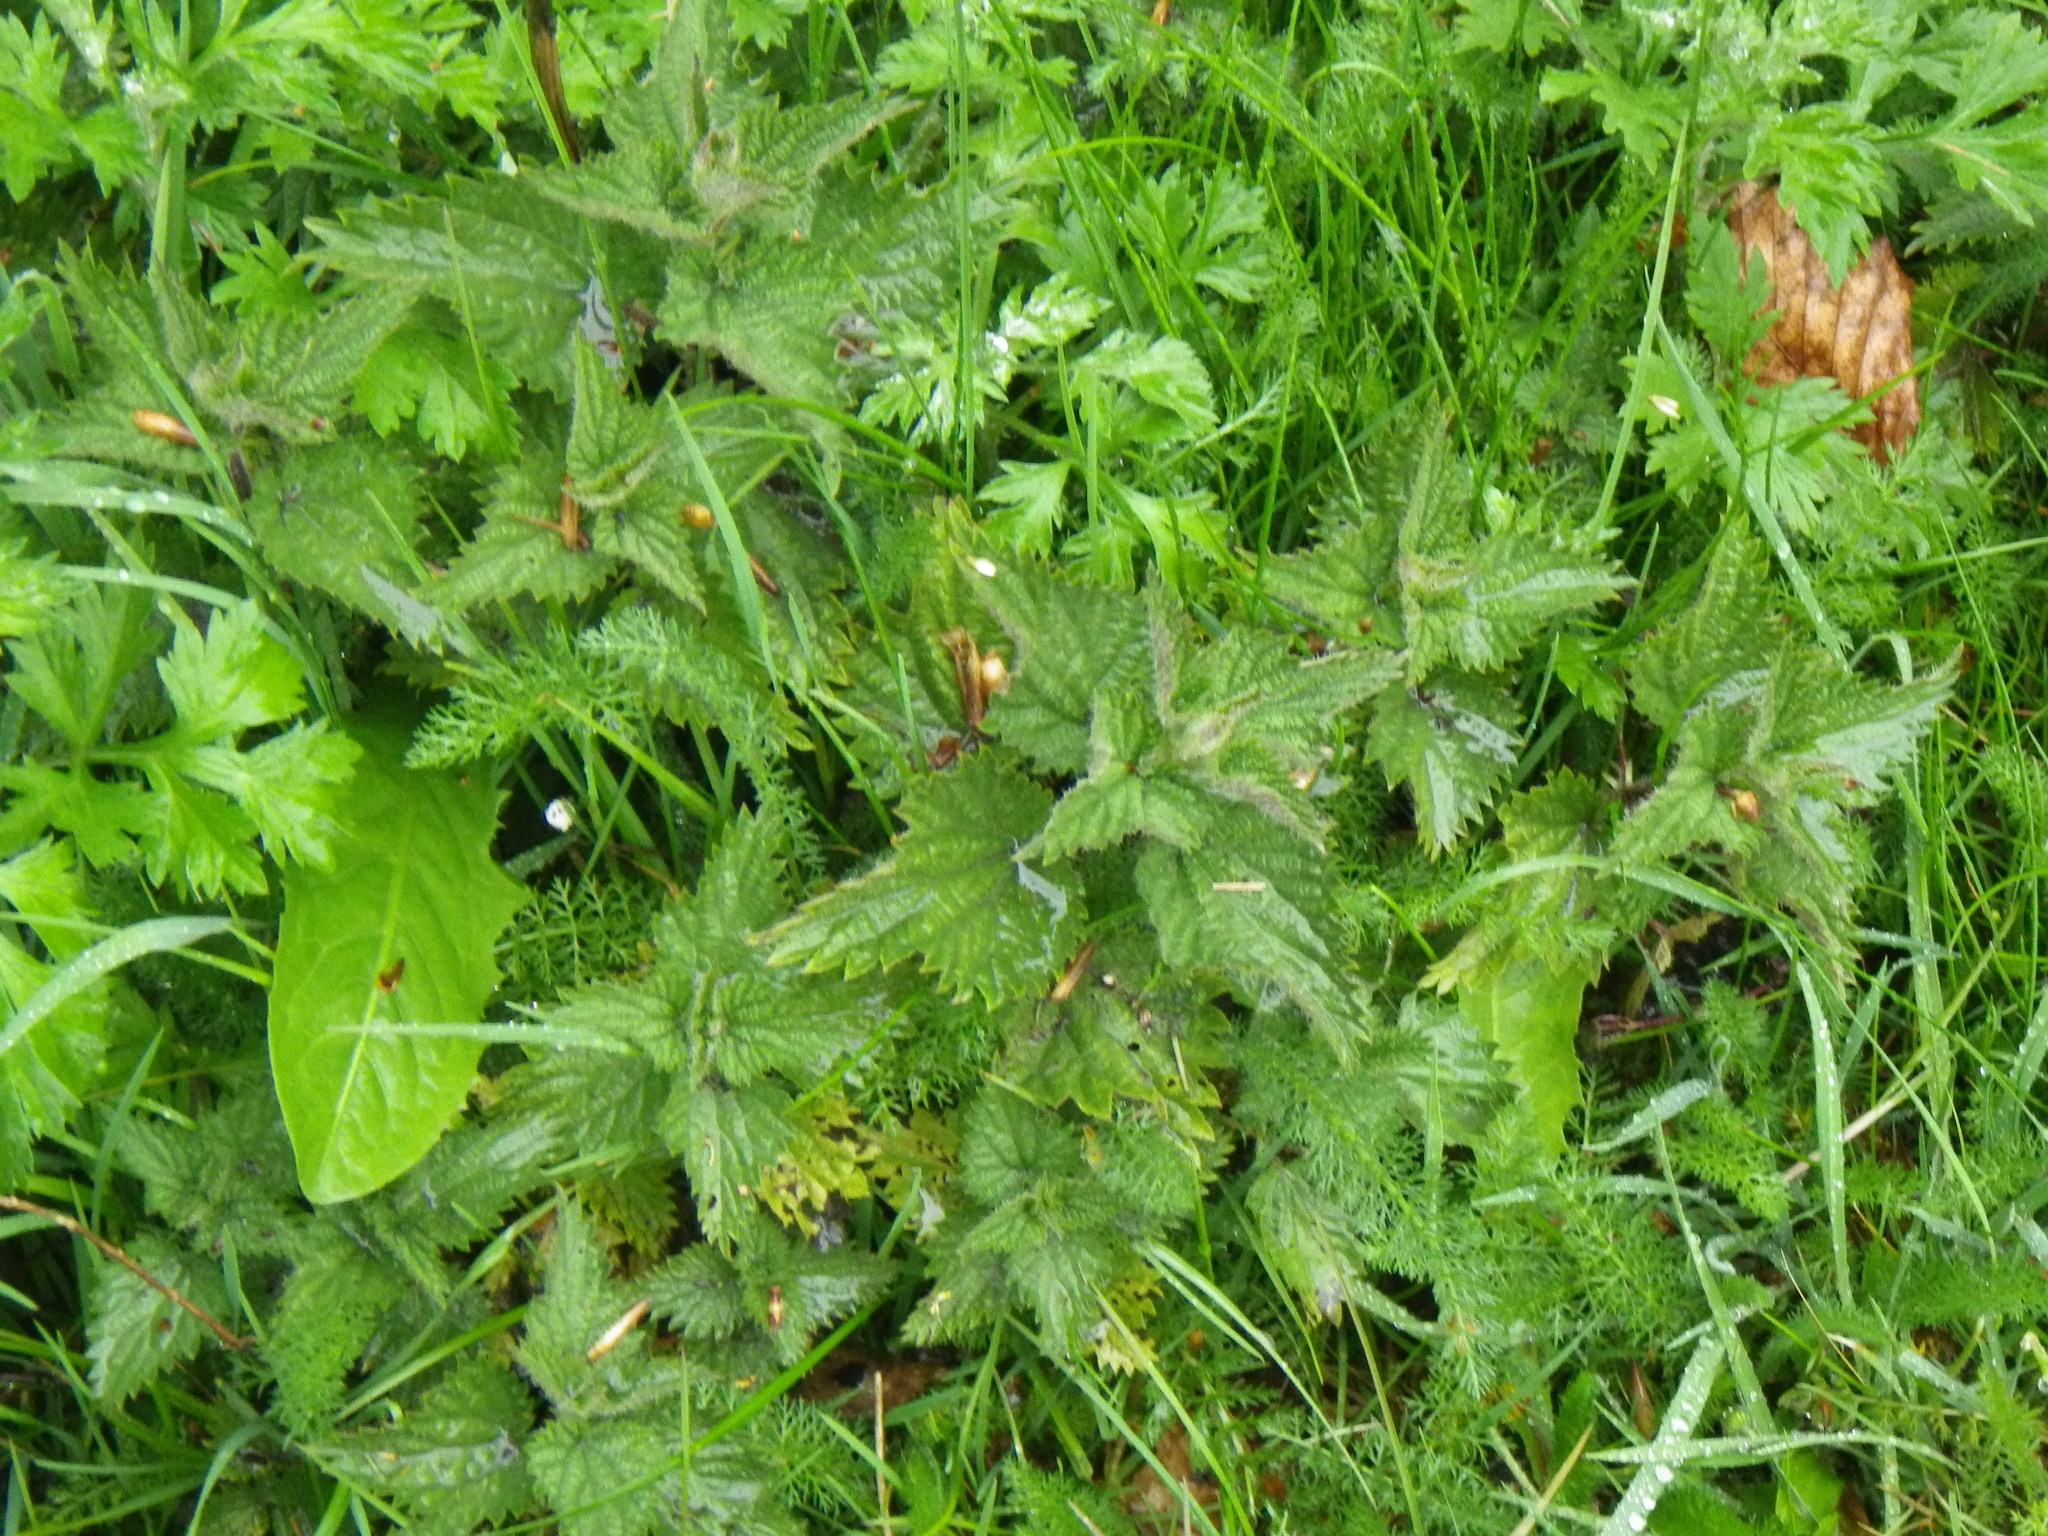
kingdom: Plantae
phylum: Tracheophyta
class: Magnoliopsida
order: Rosales
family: Urticaceae
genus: Urtica
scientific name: Urtica dioica
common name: Common nettle
